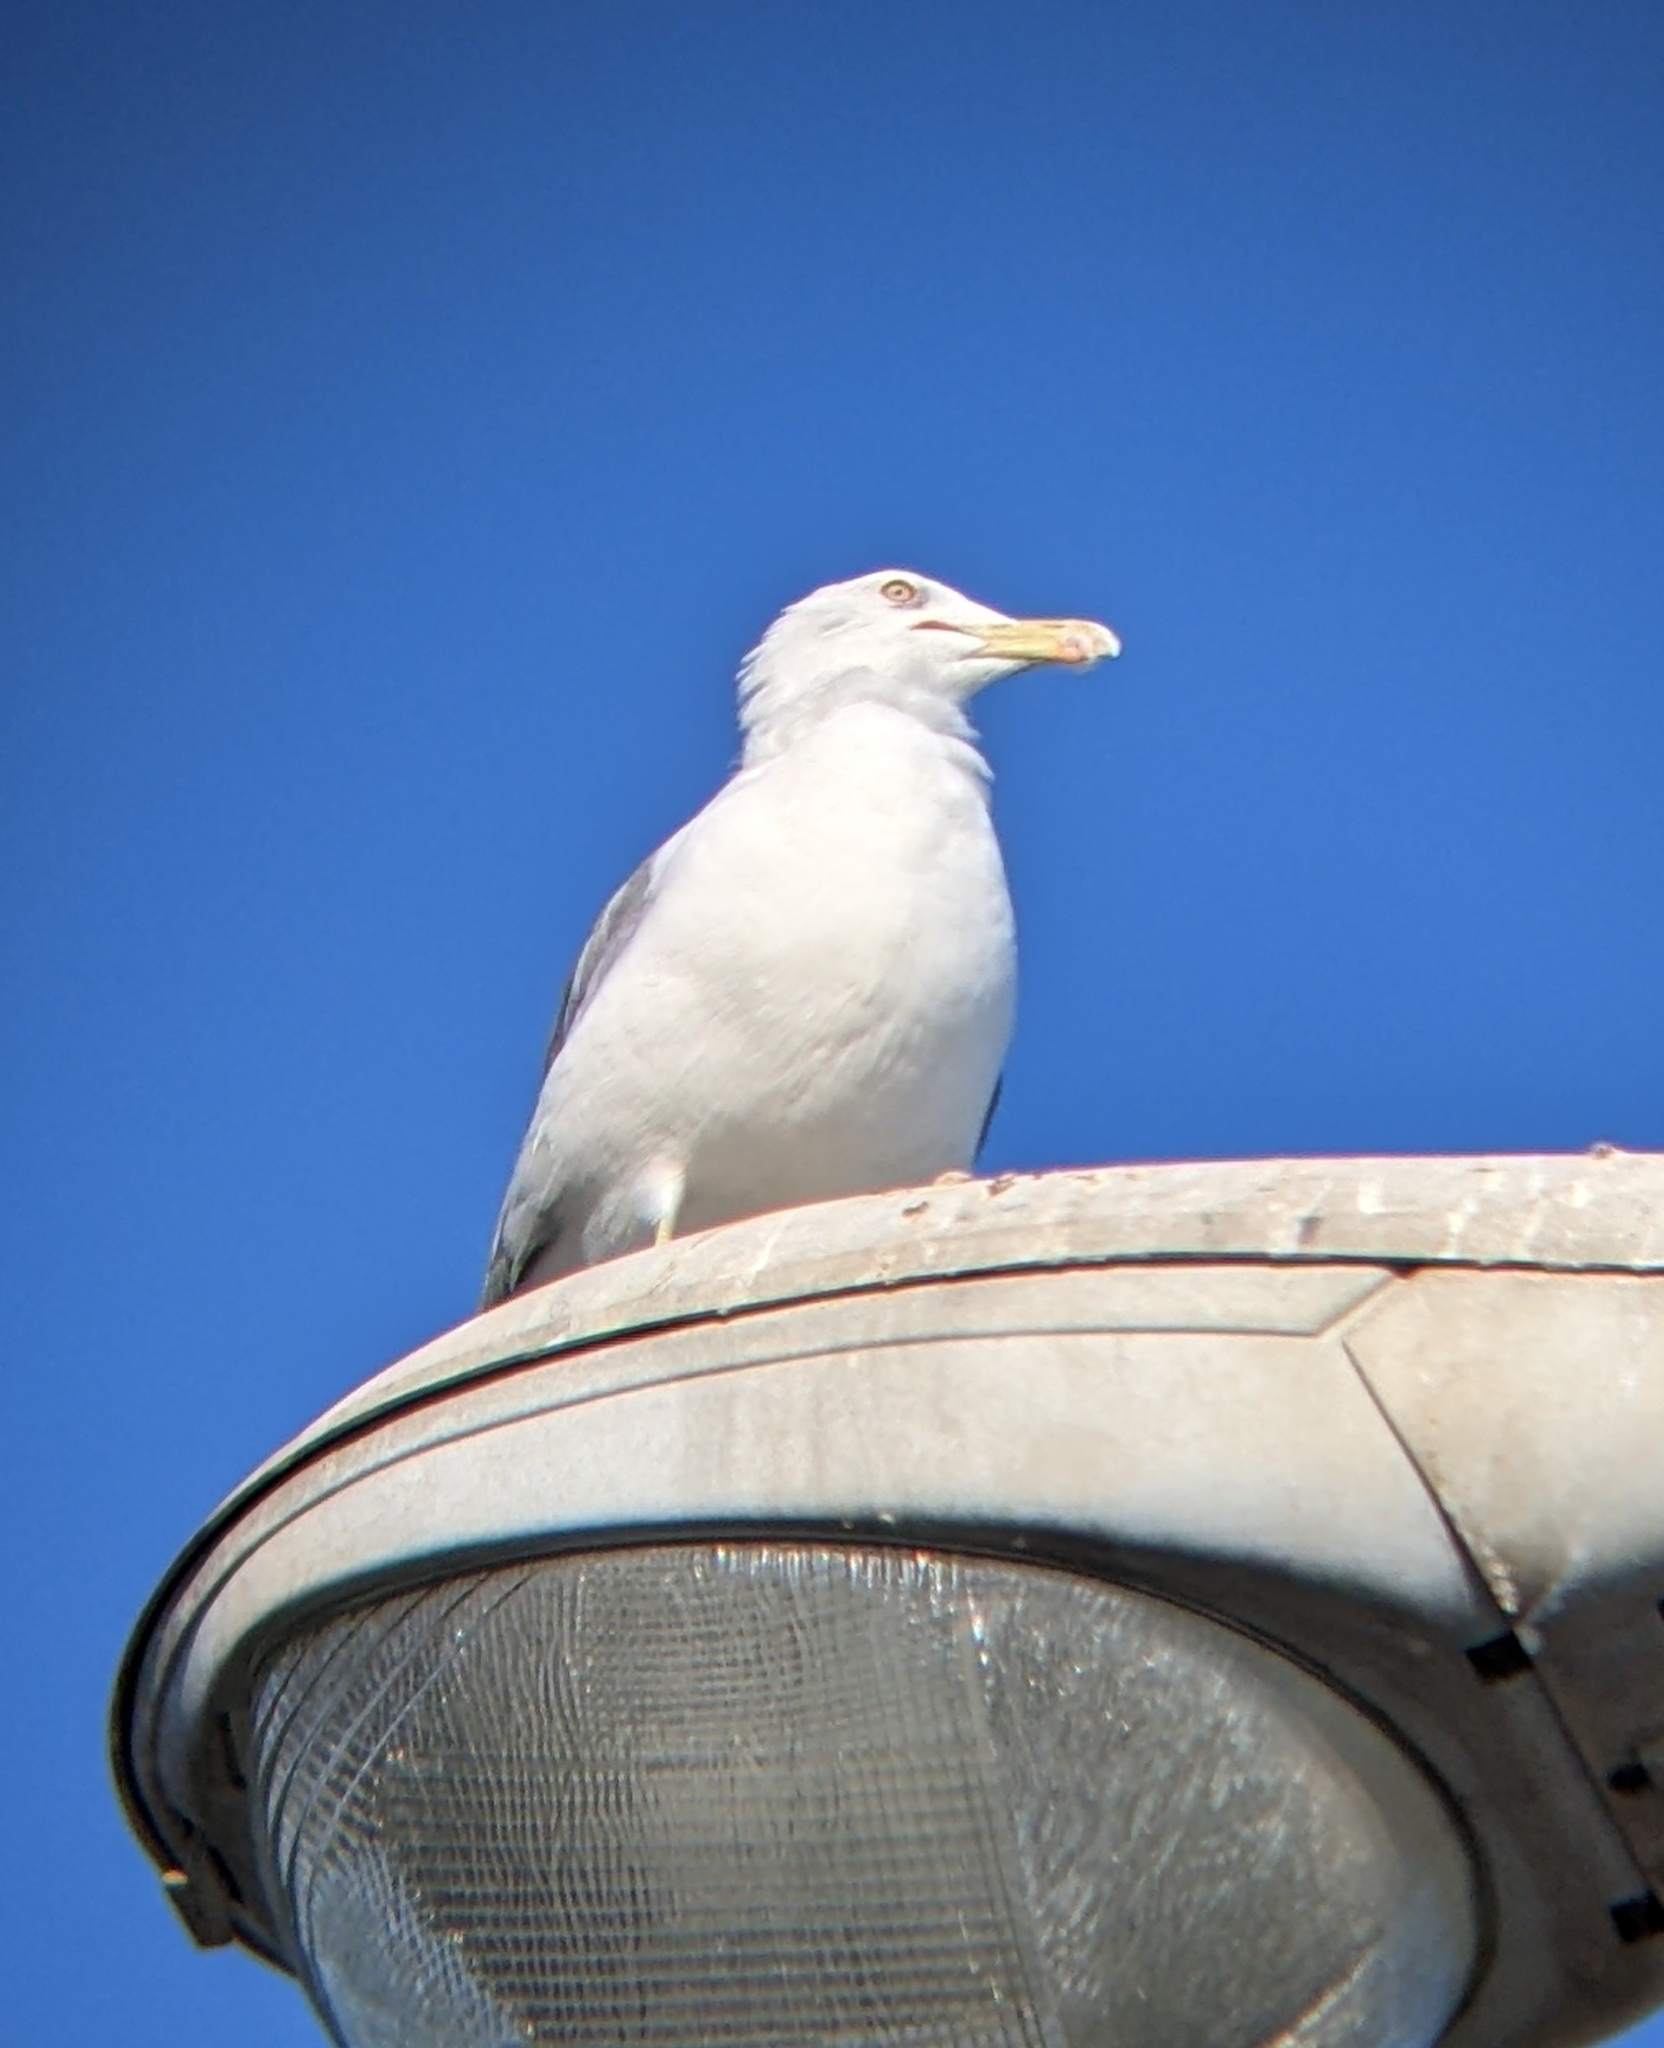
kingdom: Animalia
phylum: Chordata
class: Aves
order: Charadriiformes
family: Laridae
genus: Larus
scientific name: Larus michahellis
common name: Yellow-legged gull
